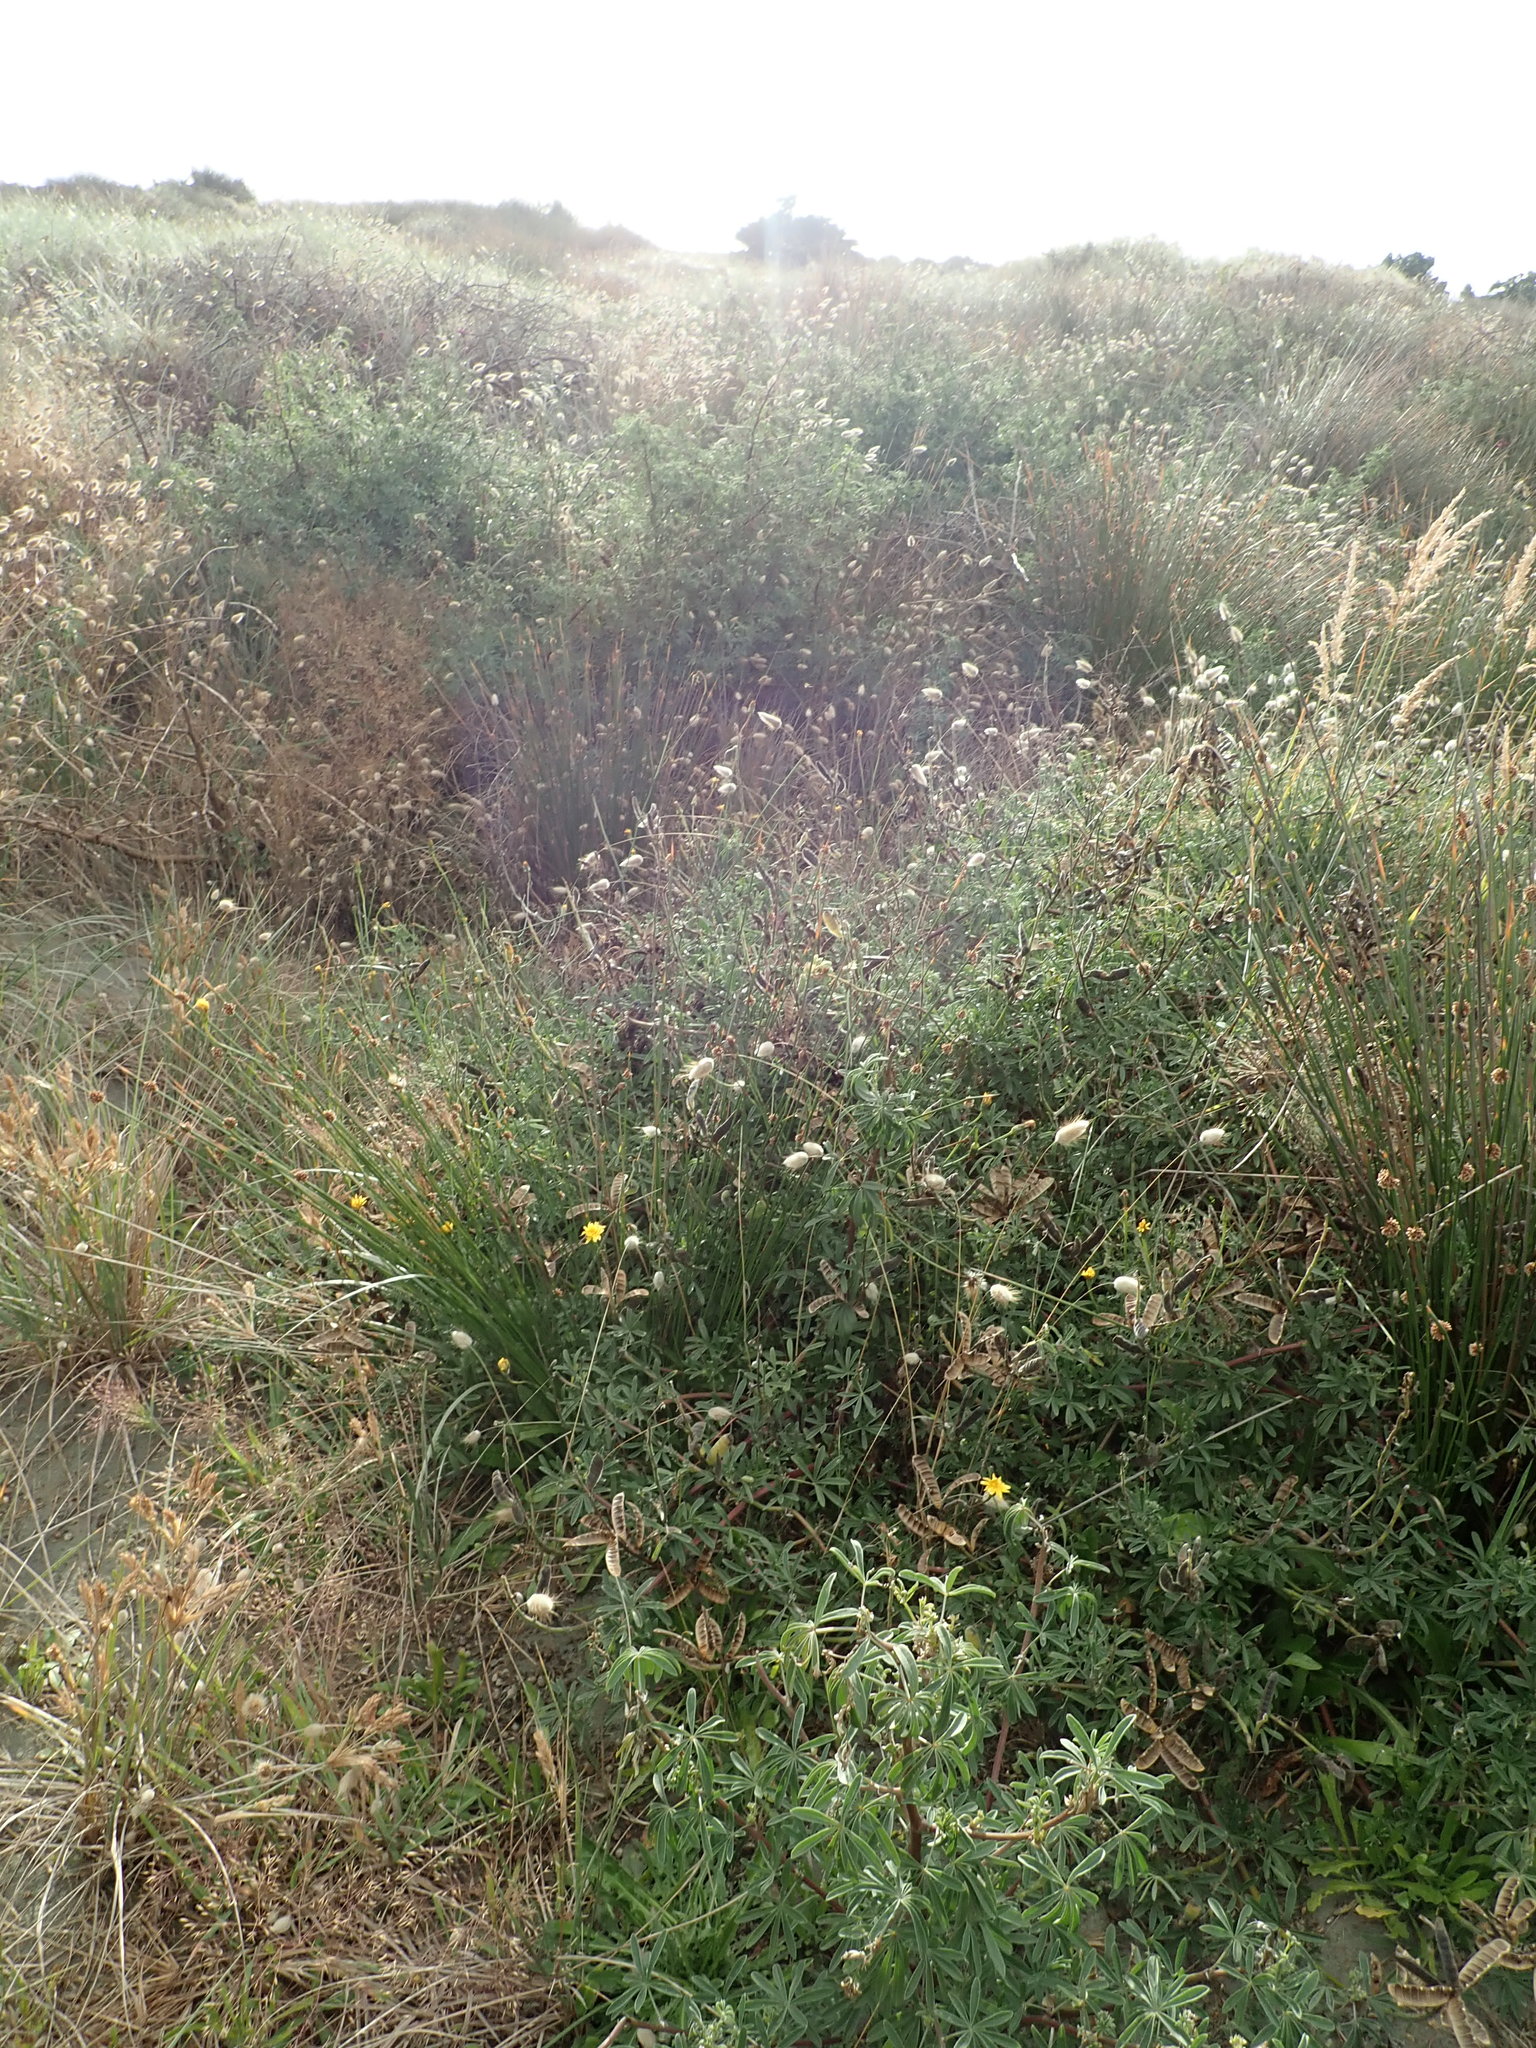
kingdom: Plantae
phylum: Tracheophyta
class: Magnoliopsida
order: Fabales
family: Fabaceae
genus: Lupinus
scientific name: Lupinus arboreus
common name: Yellow bush lupine
